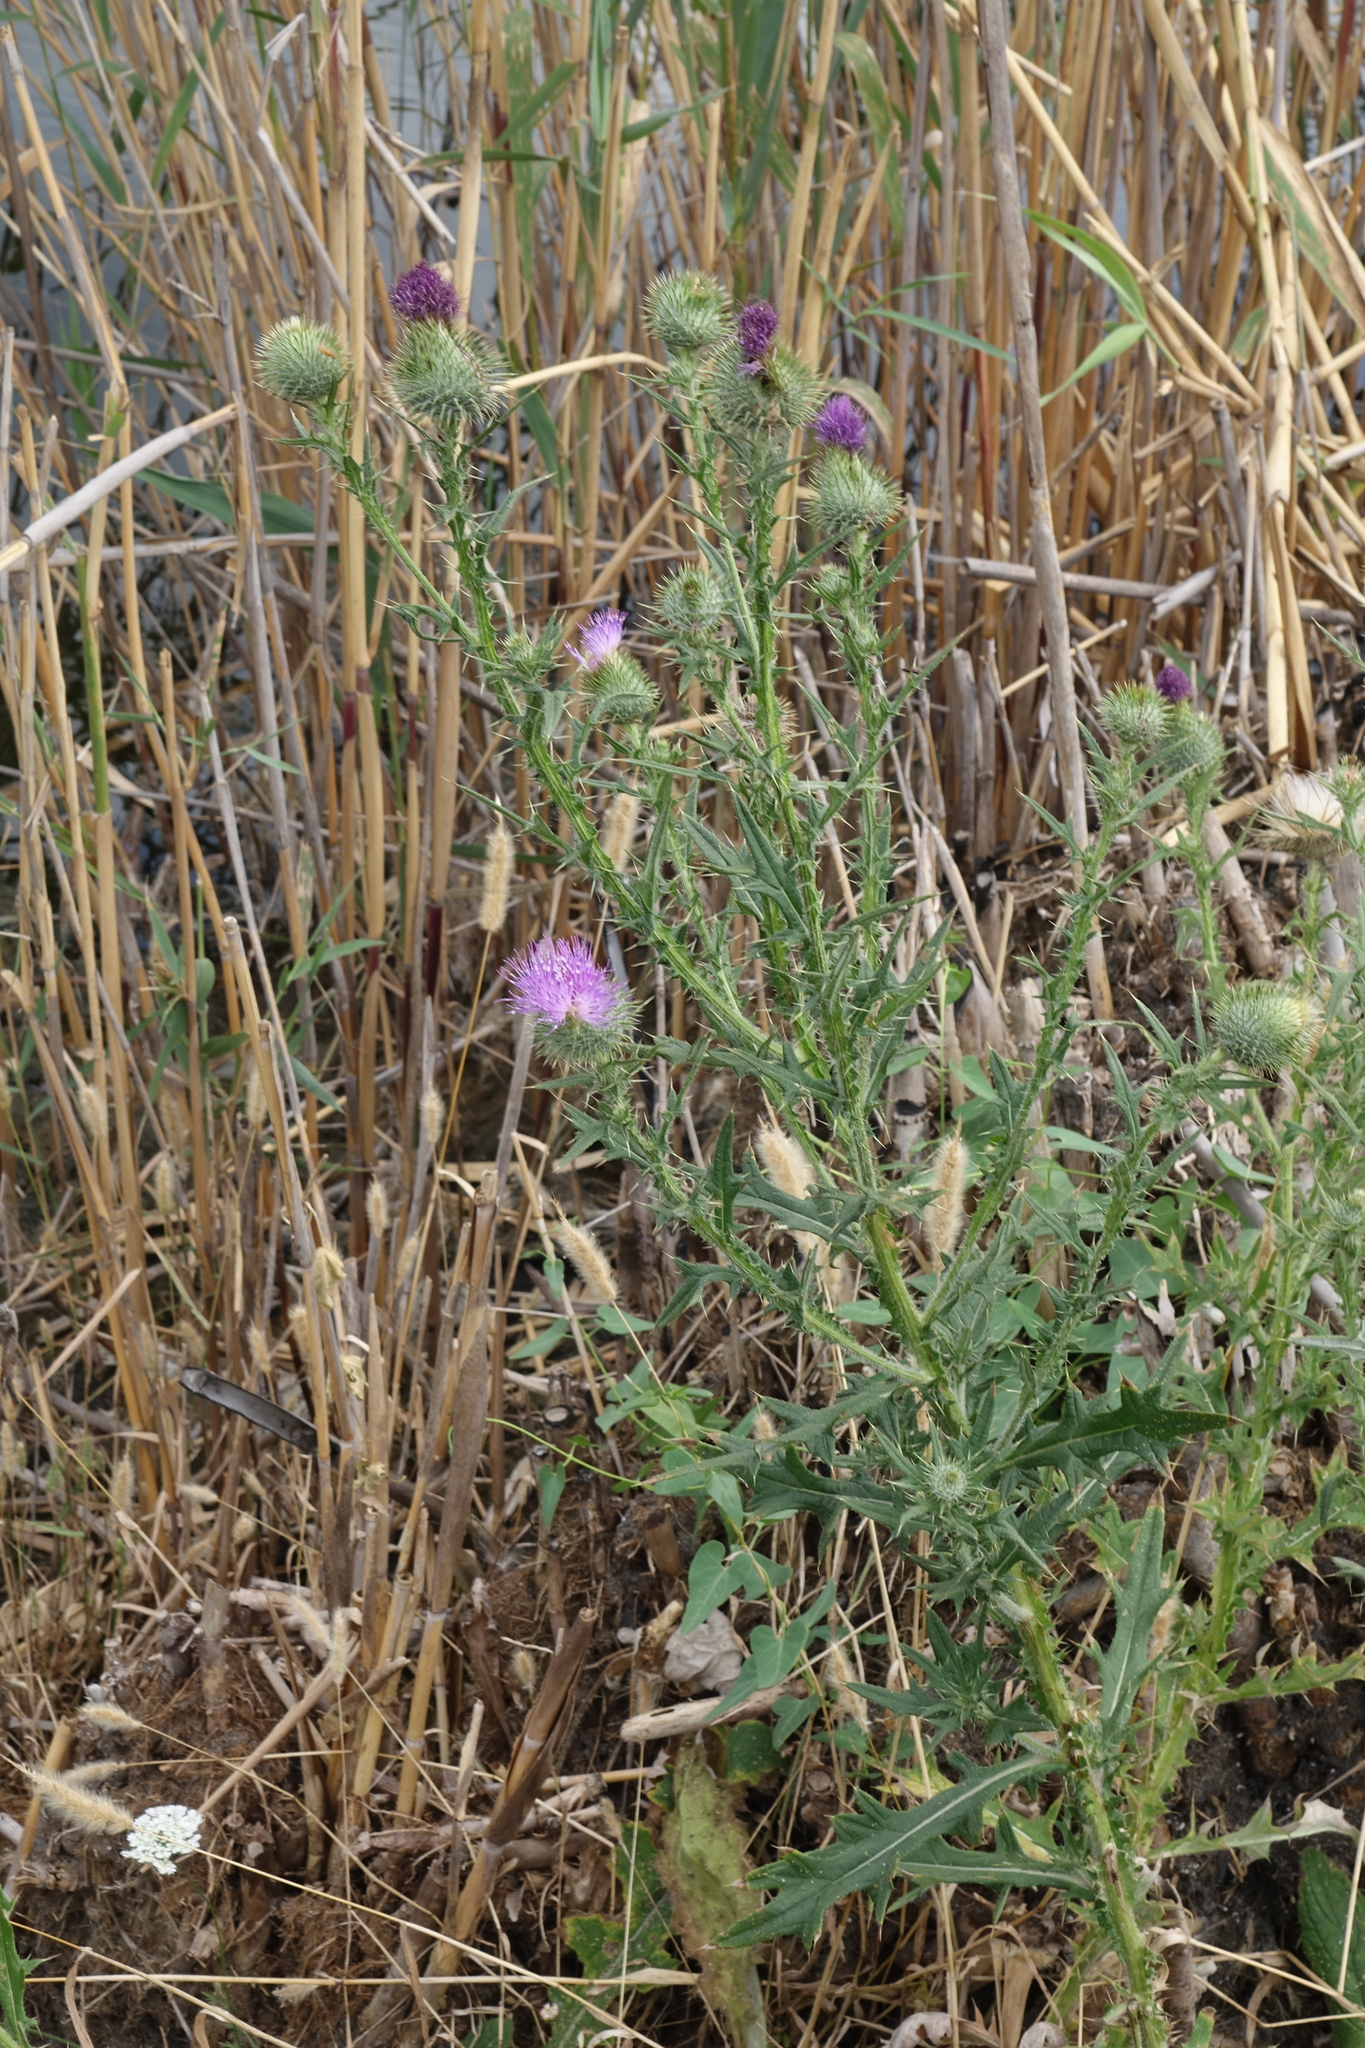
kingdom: Plantae
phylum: Tracheophyta
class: Magnoliopsida
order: Asterales
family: Asteraceae
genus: Cirsium
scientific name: Cirsium vulgare
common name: Bull thistle
